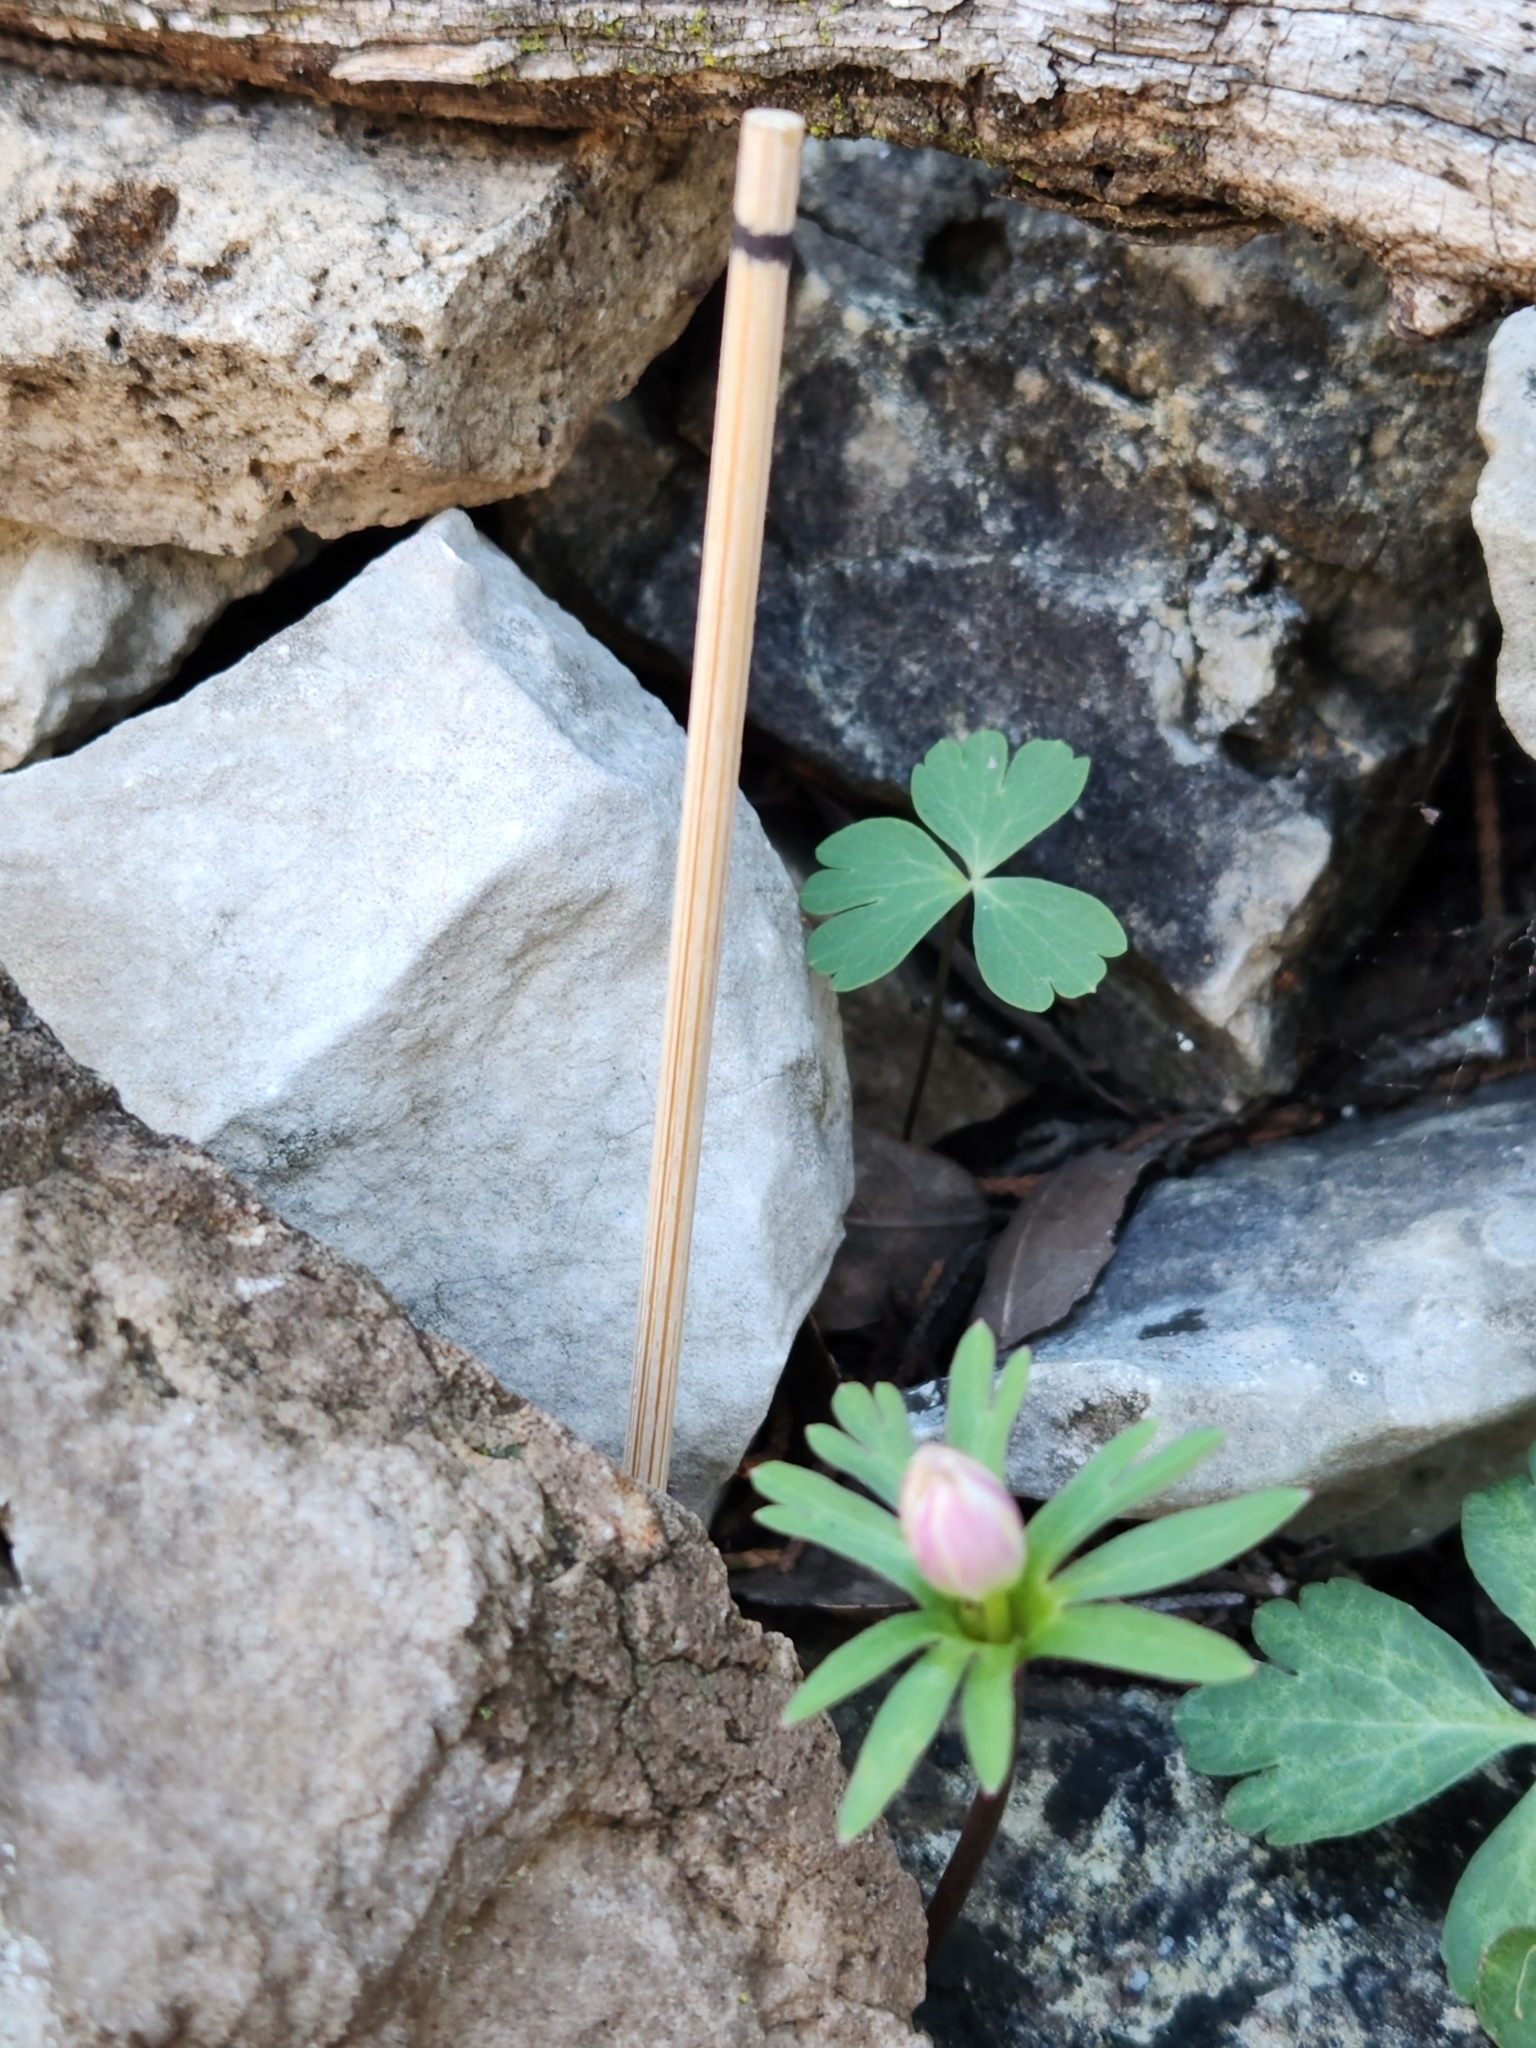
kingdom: Plantae
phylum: Tracheophyta
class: Magnoliopsida
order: Ranunculales
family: Ranunculaceae
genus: Anemone
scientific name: Anemone edwardsiana
